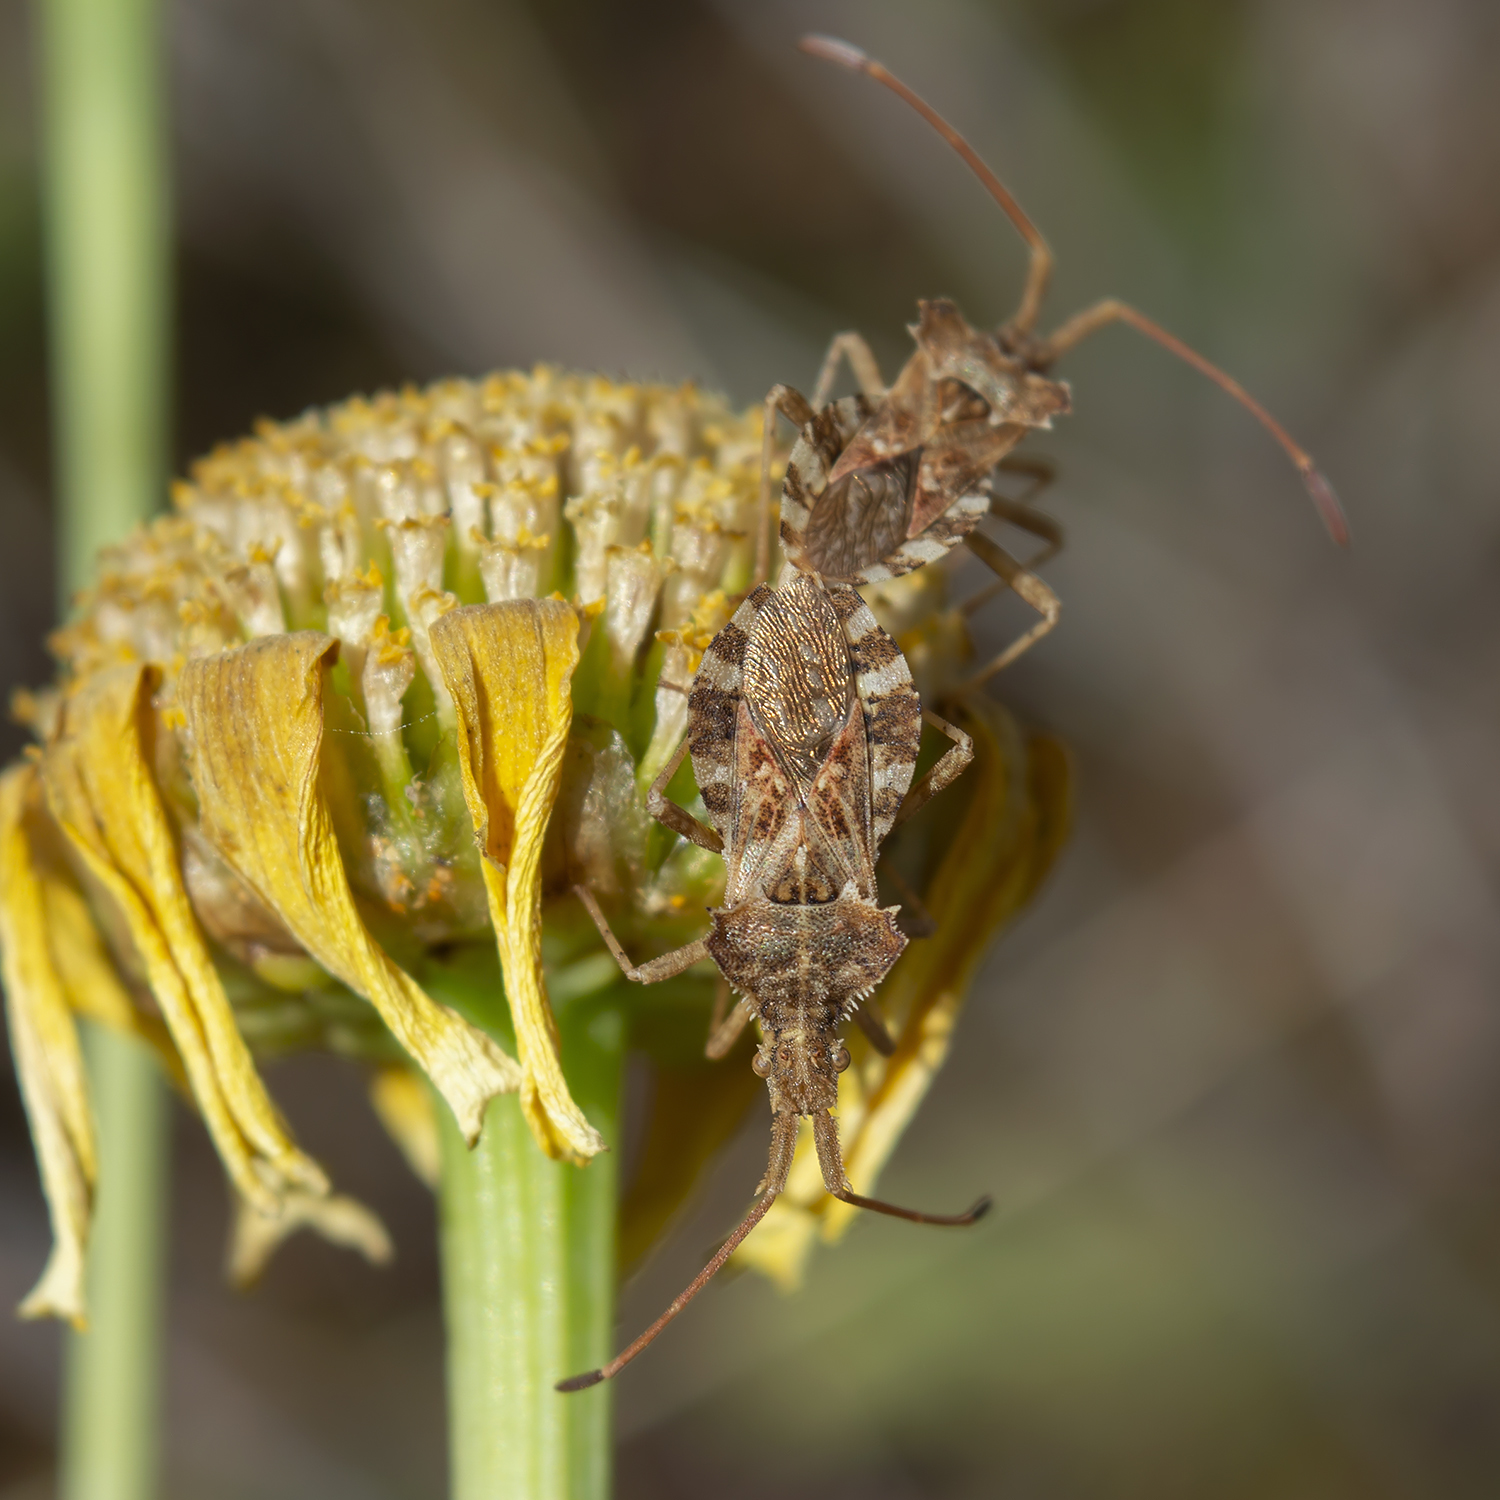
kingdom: Animalia
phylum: Arthropoda
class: Insecta
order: Hemiptera
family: Coreidae
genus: Centrocoris
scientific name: Centrocoris spiniger
